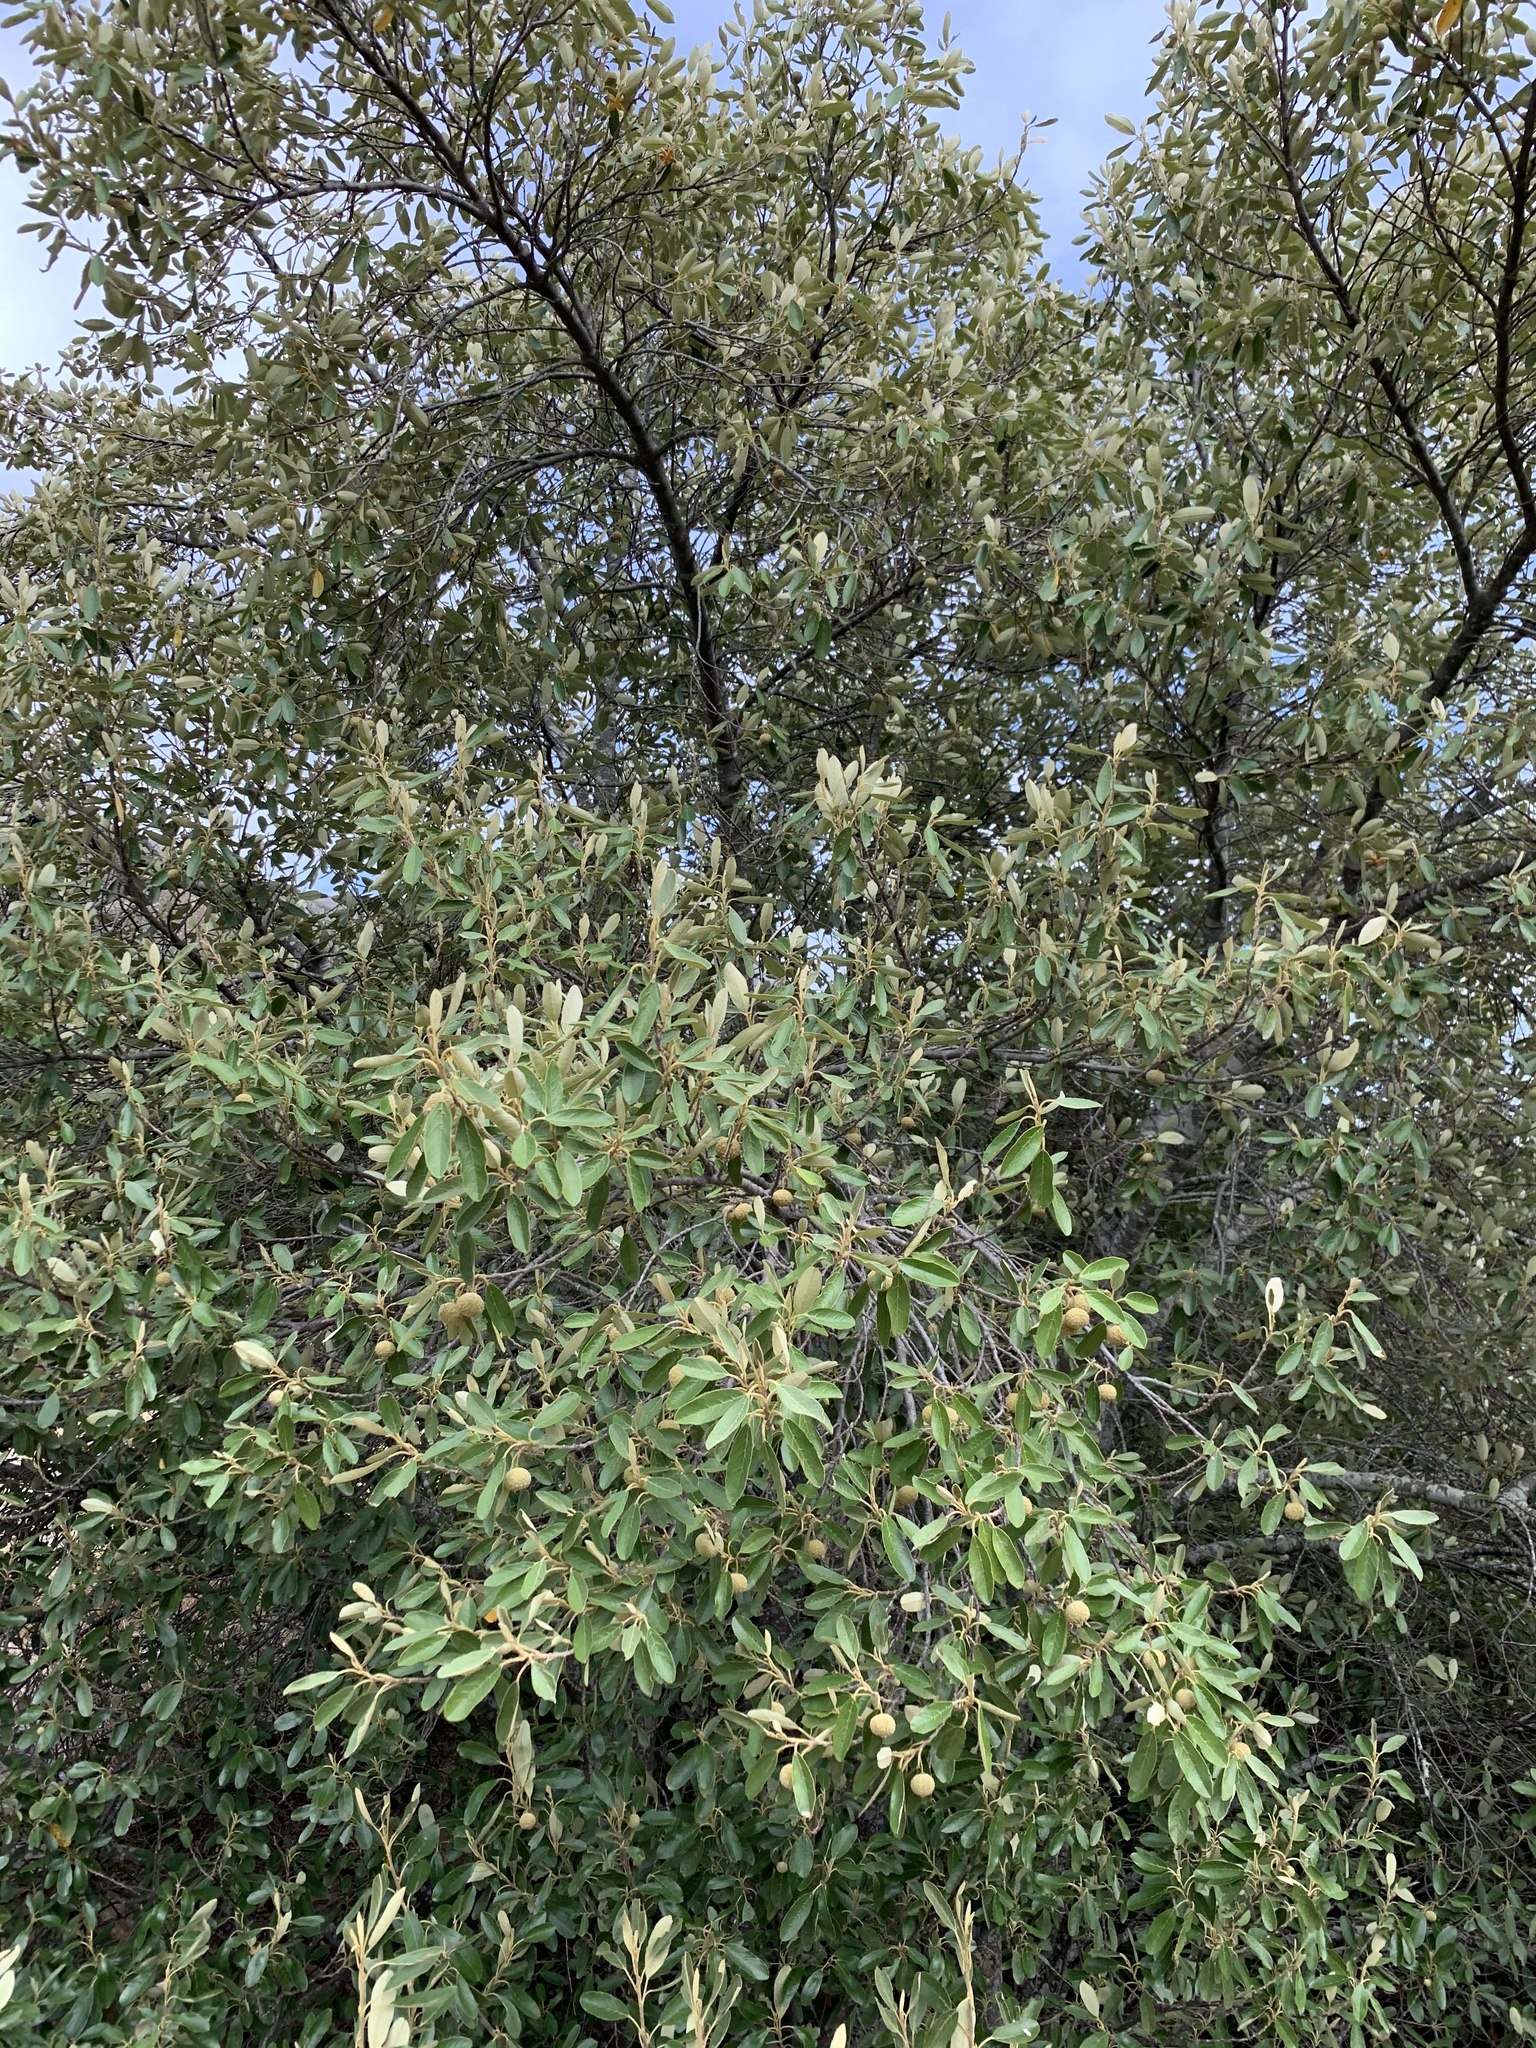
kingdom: Plantae
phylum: Tracheophyta
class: Magnoliopsida
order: Malpighiales
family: Achariaceae
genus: Kiggelaria
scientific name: Kiggelaria africana
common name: Wild peach
